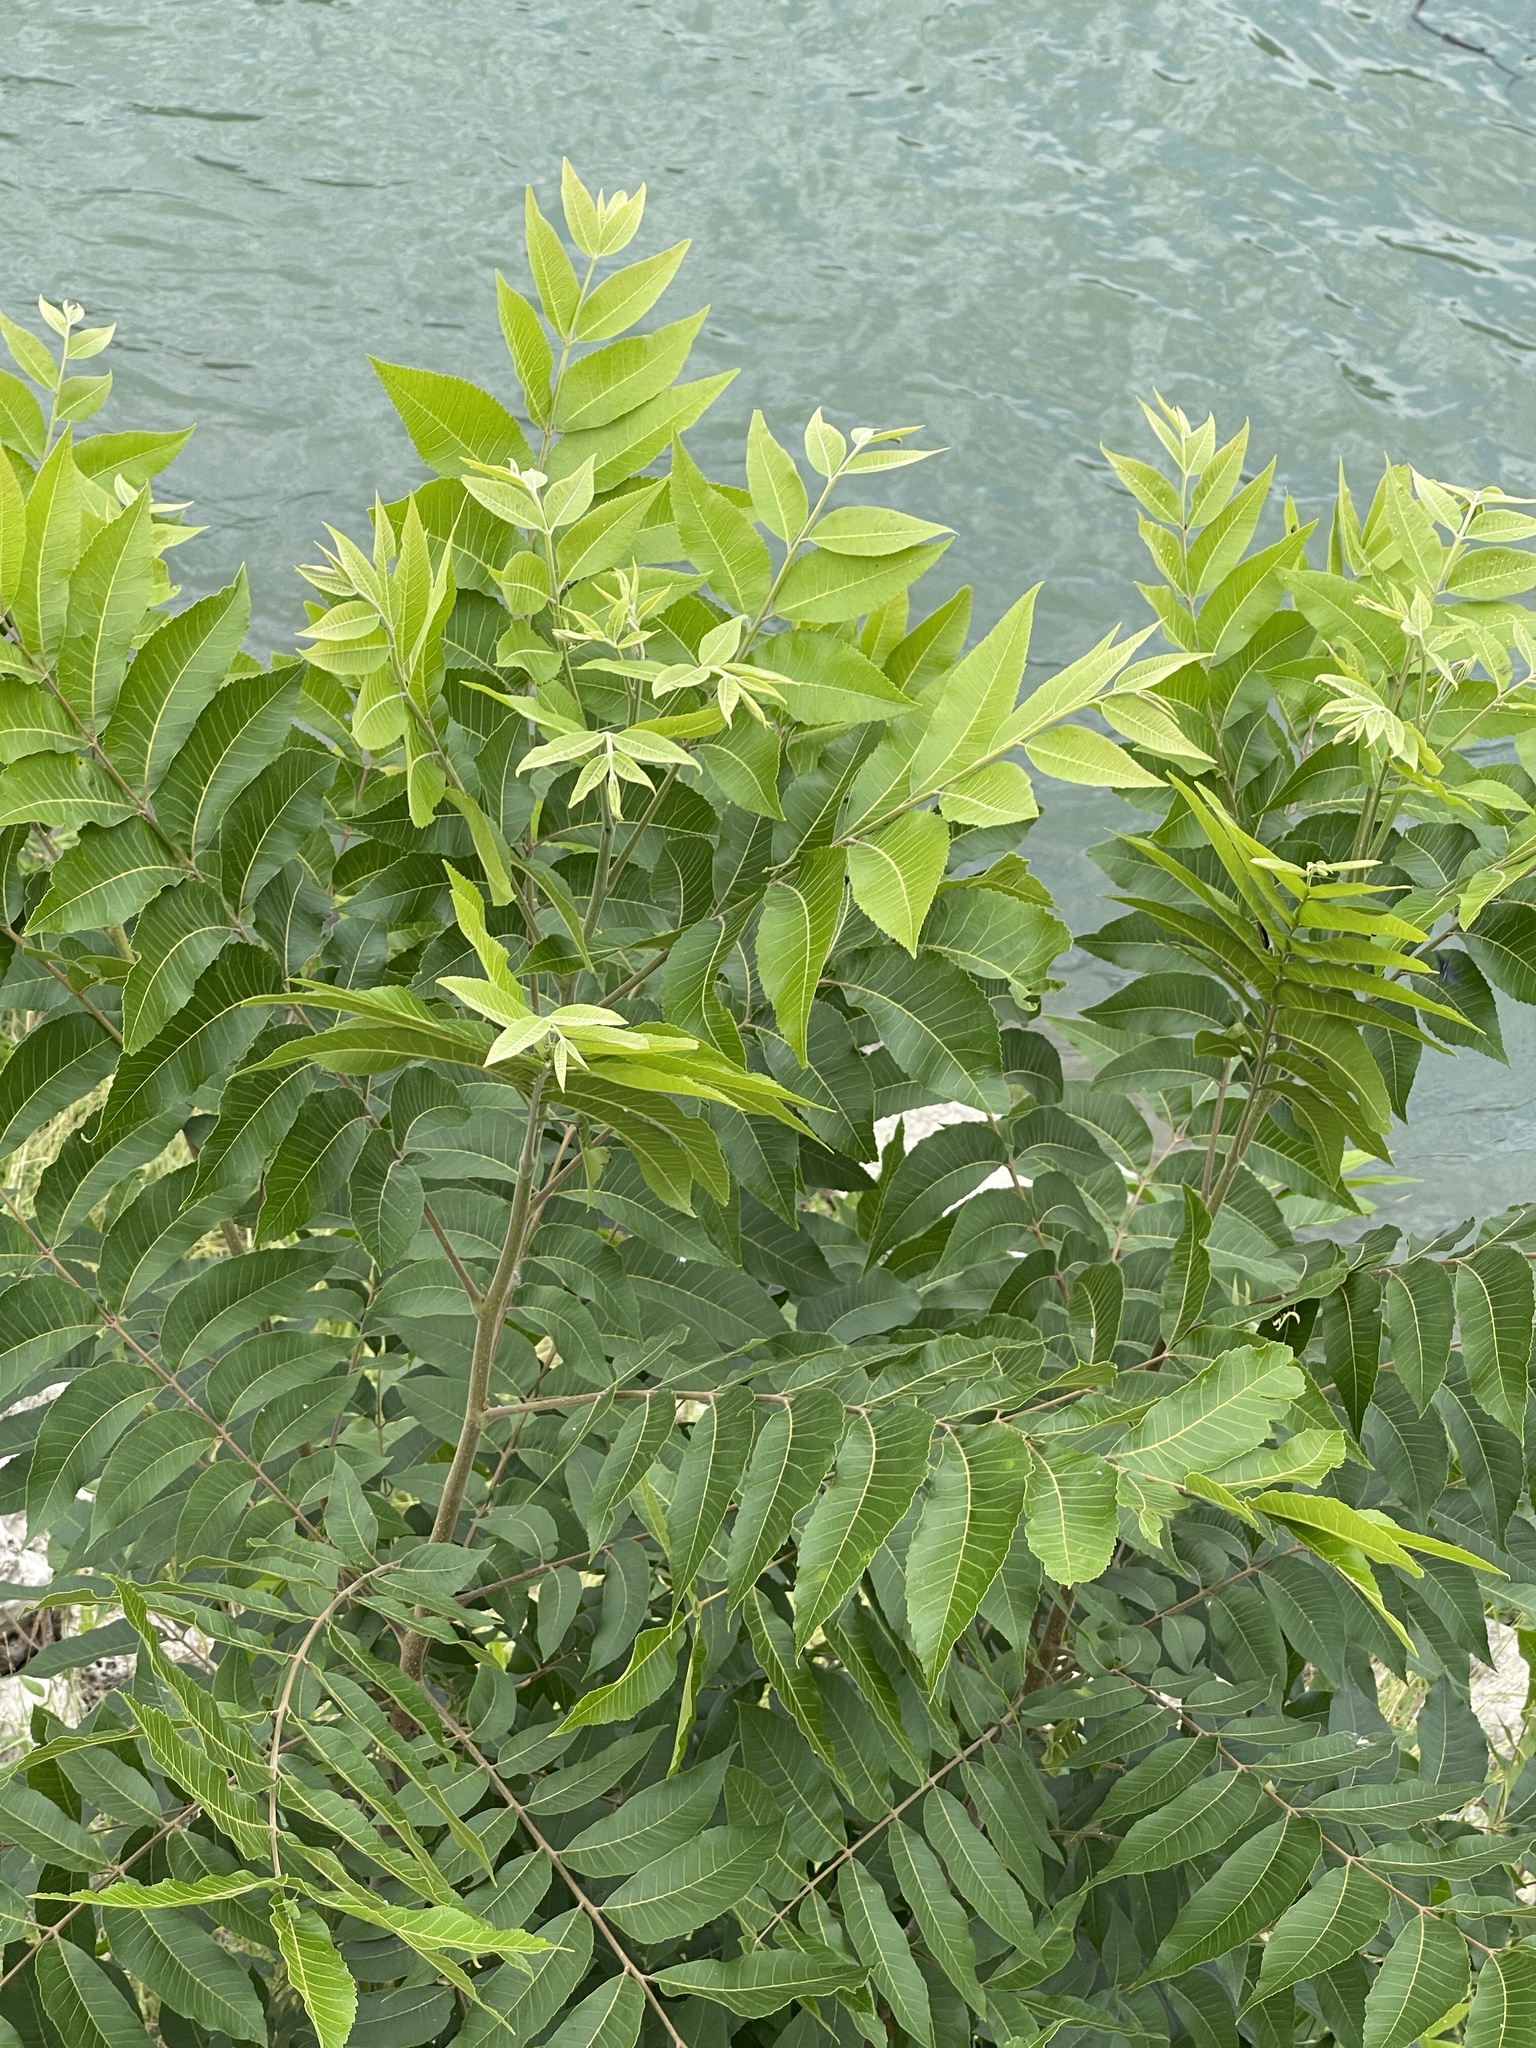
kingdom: Plantae
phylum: Tracheophyta
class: Magnoliopsida
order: Fagales
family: Juglandaceae
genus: Carya
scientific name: Carya illinoinensis
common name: Pecan
